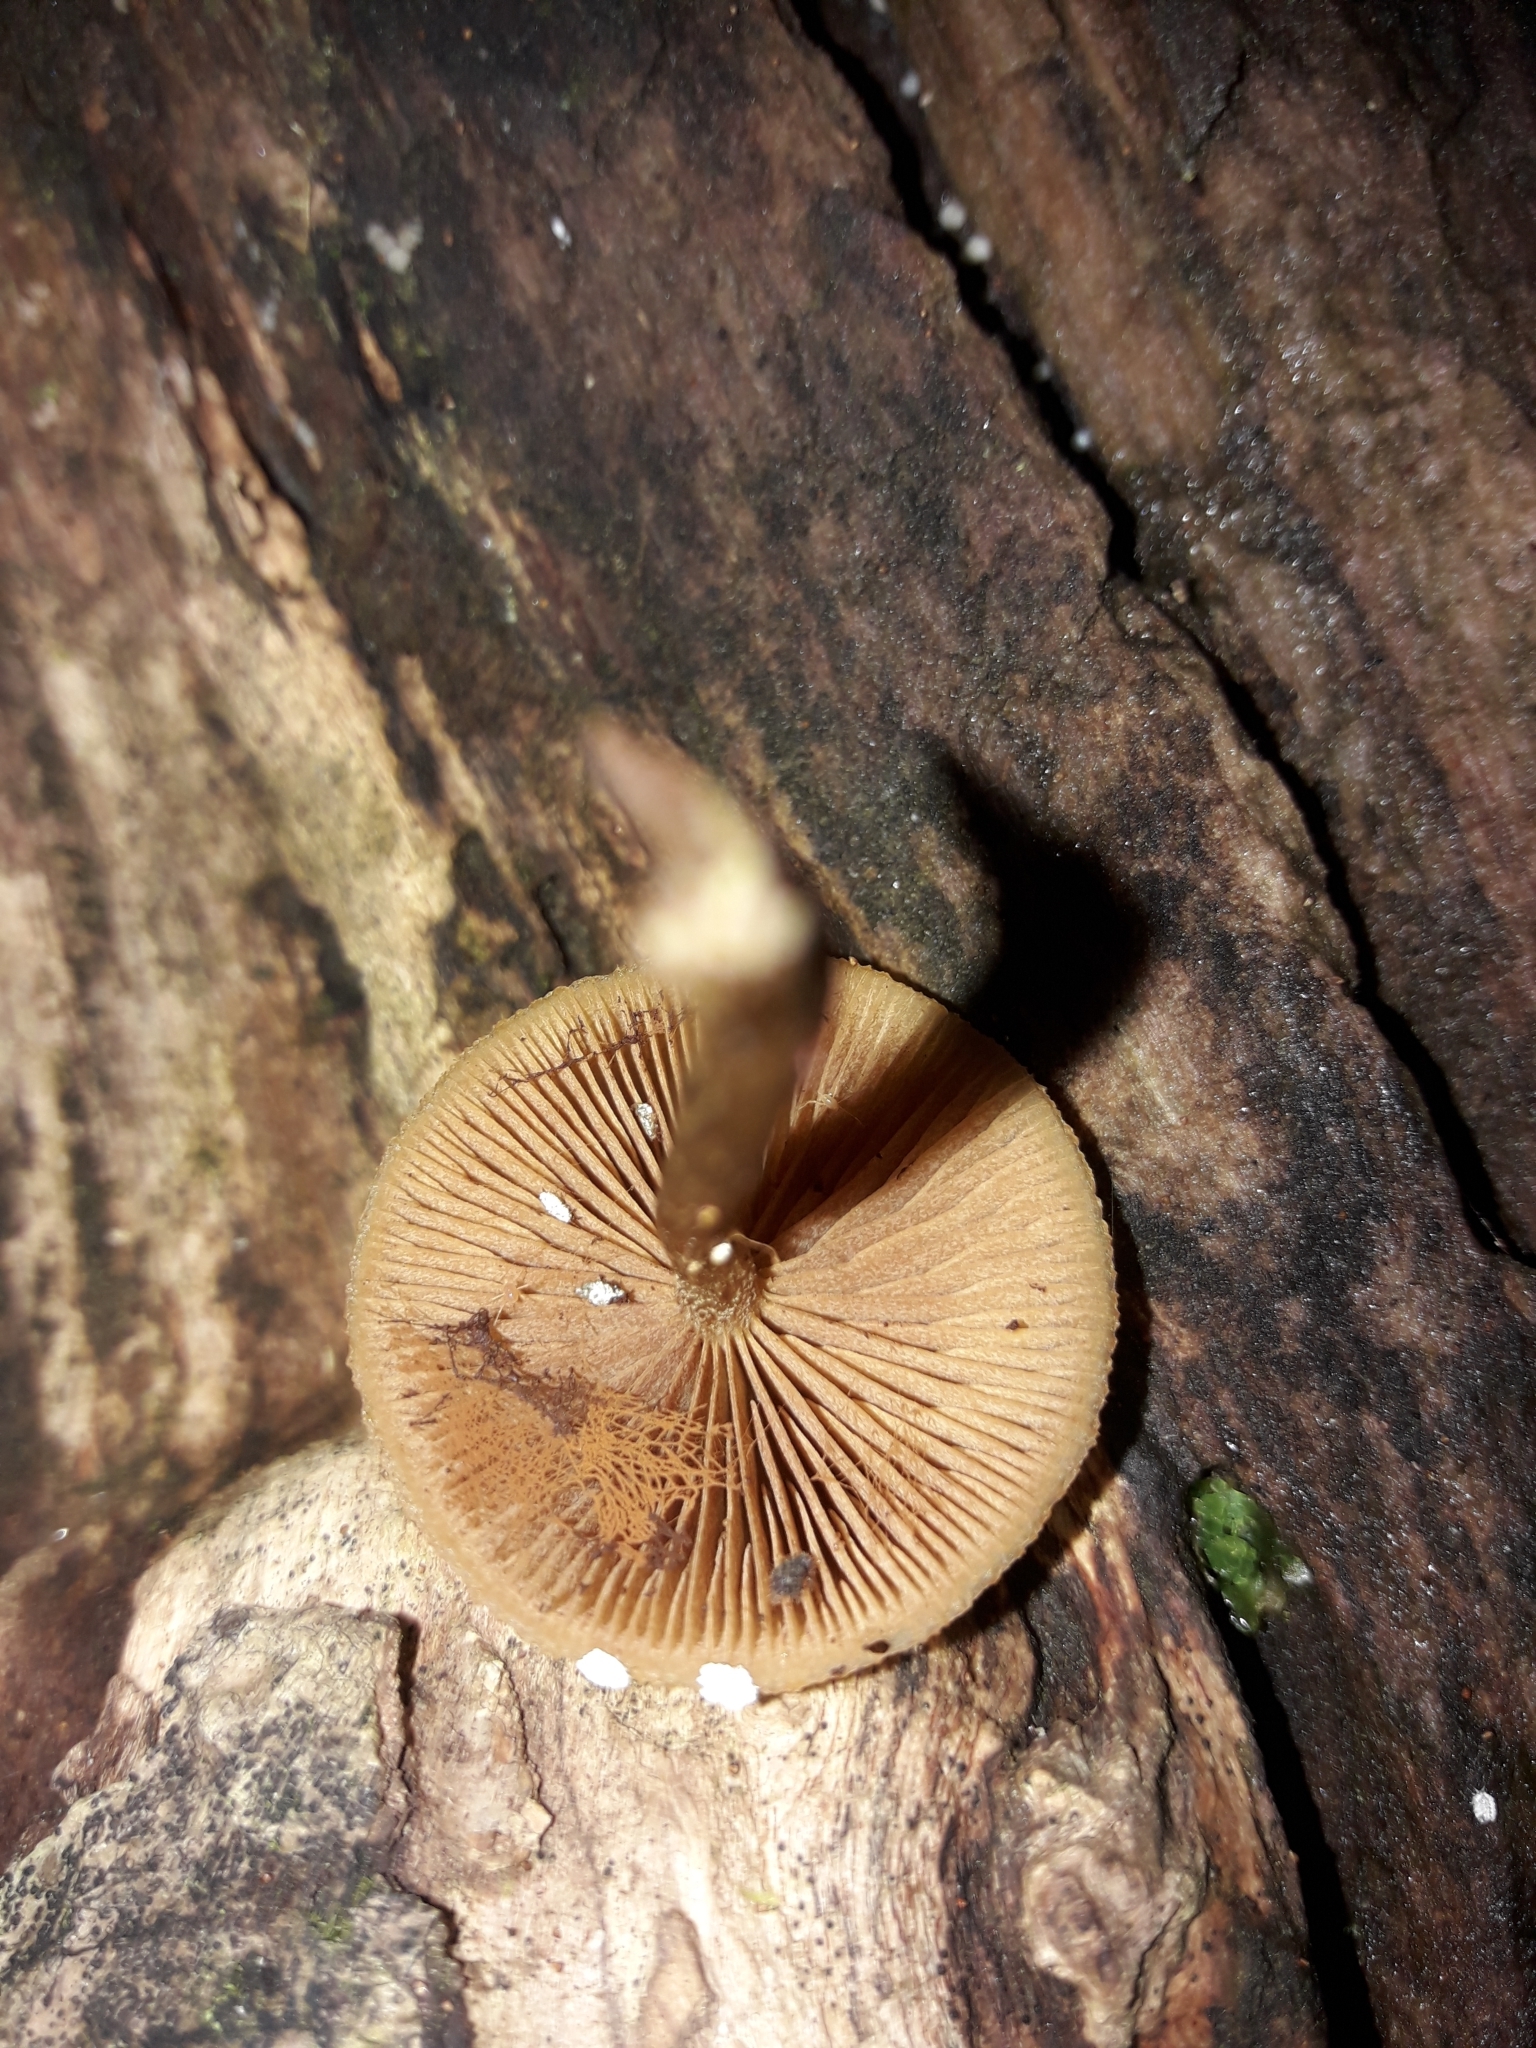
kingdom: Fungi
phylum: Basidiomycota
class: Agaricomycetes
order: Agaricales
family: Hymenogastraceae
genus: Galerina
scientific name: Galerina patagonica
